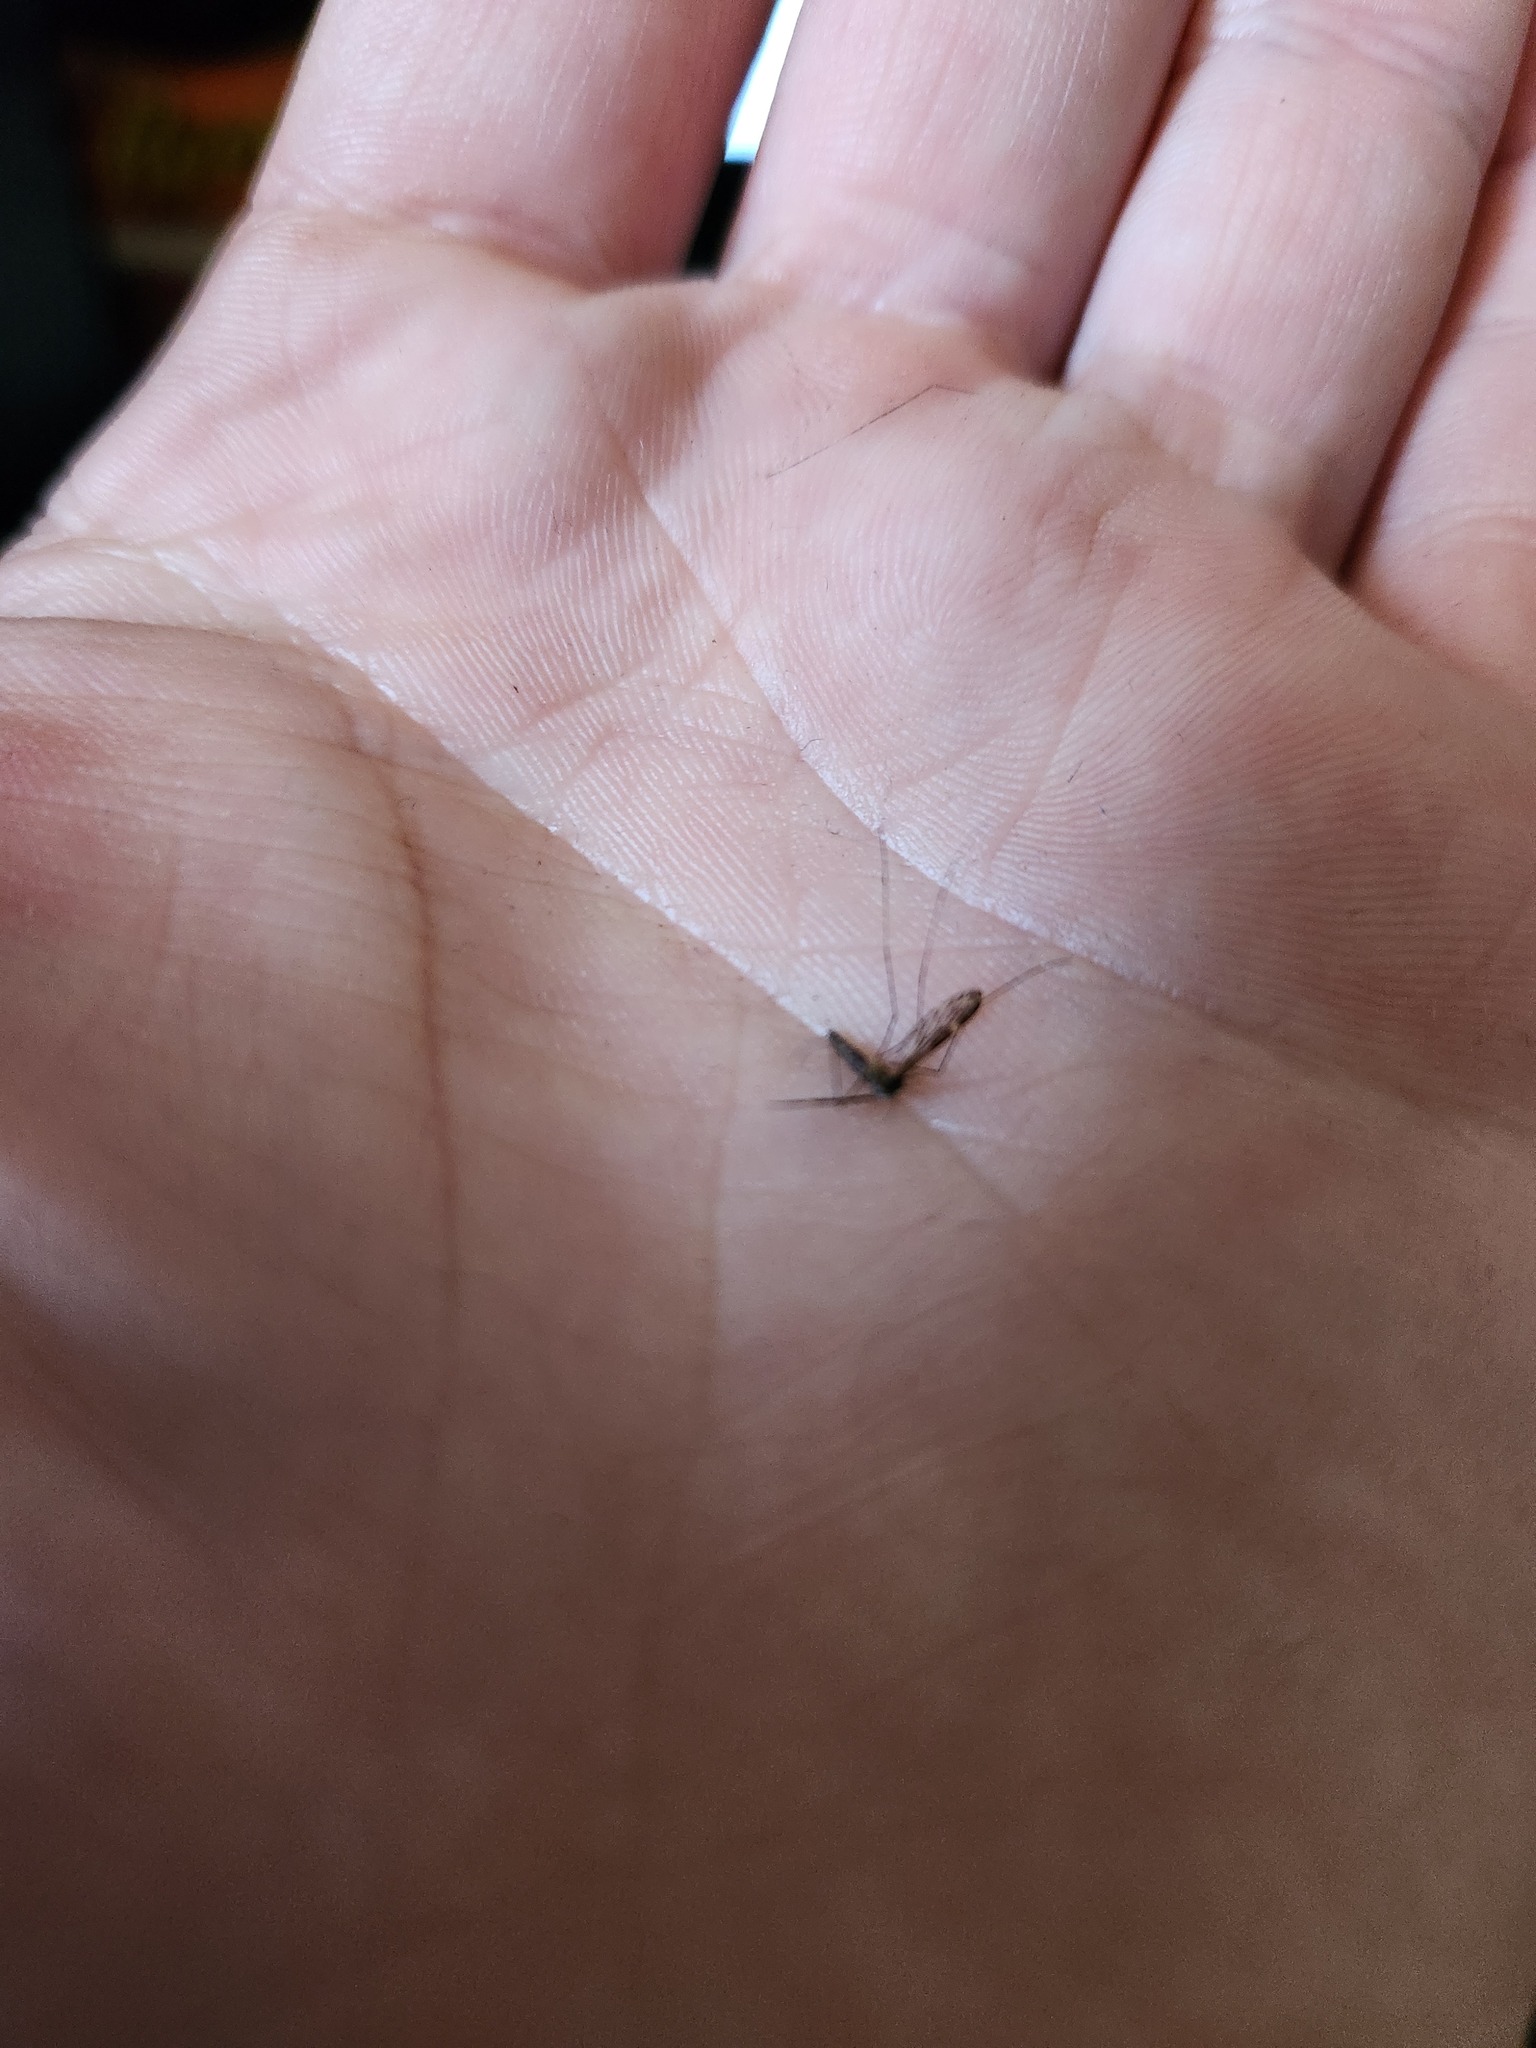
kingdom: Animalia
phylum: Arthropoda
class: Insecta
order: Diptera
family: Culicidae
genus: Anopheles
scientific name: Anopheles punctipennis
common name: Woodland malaria mosquito
